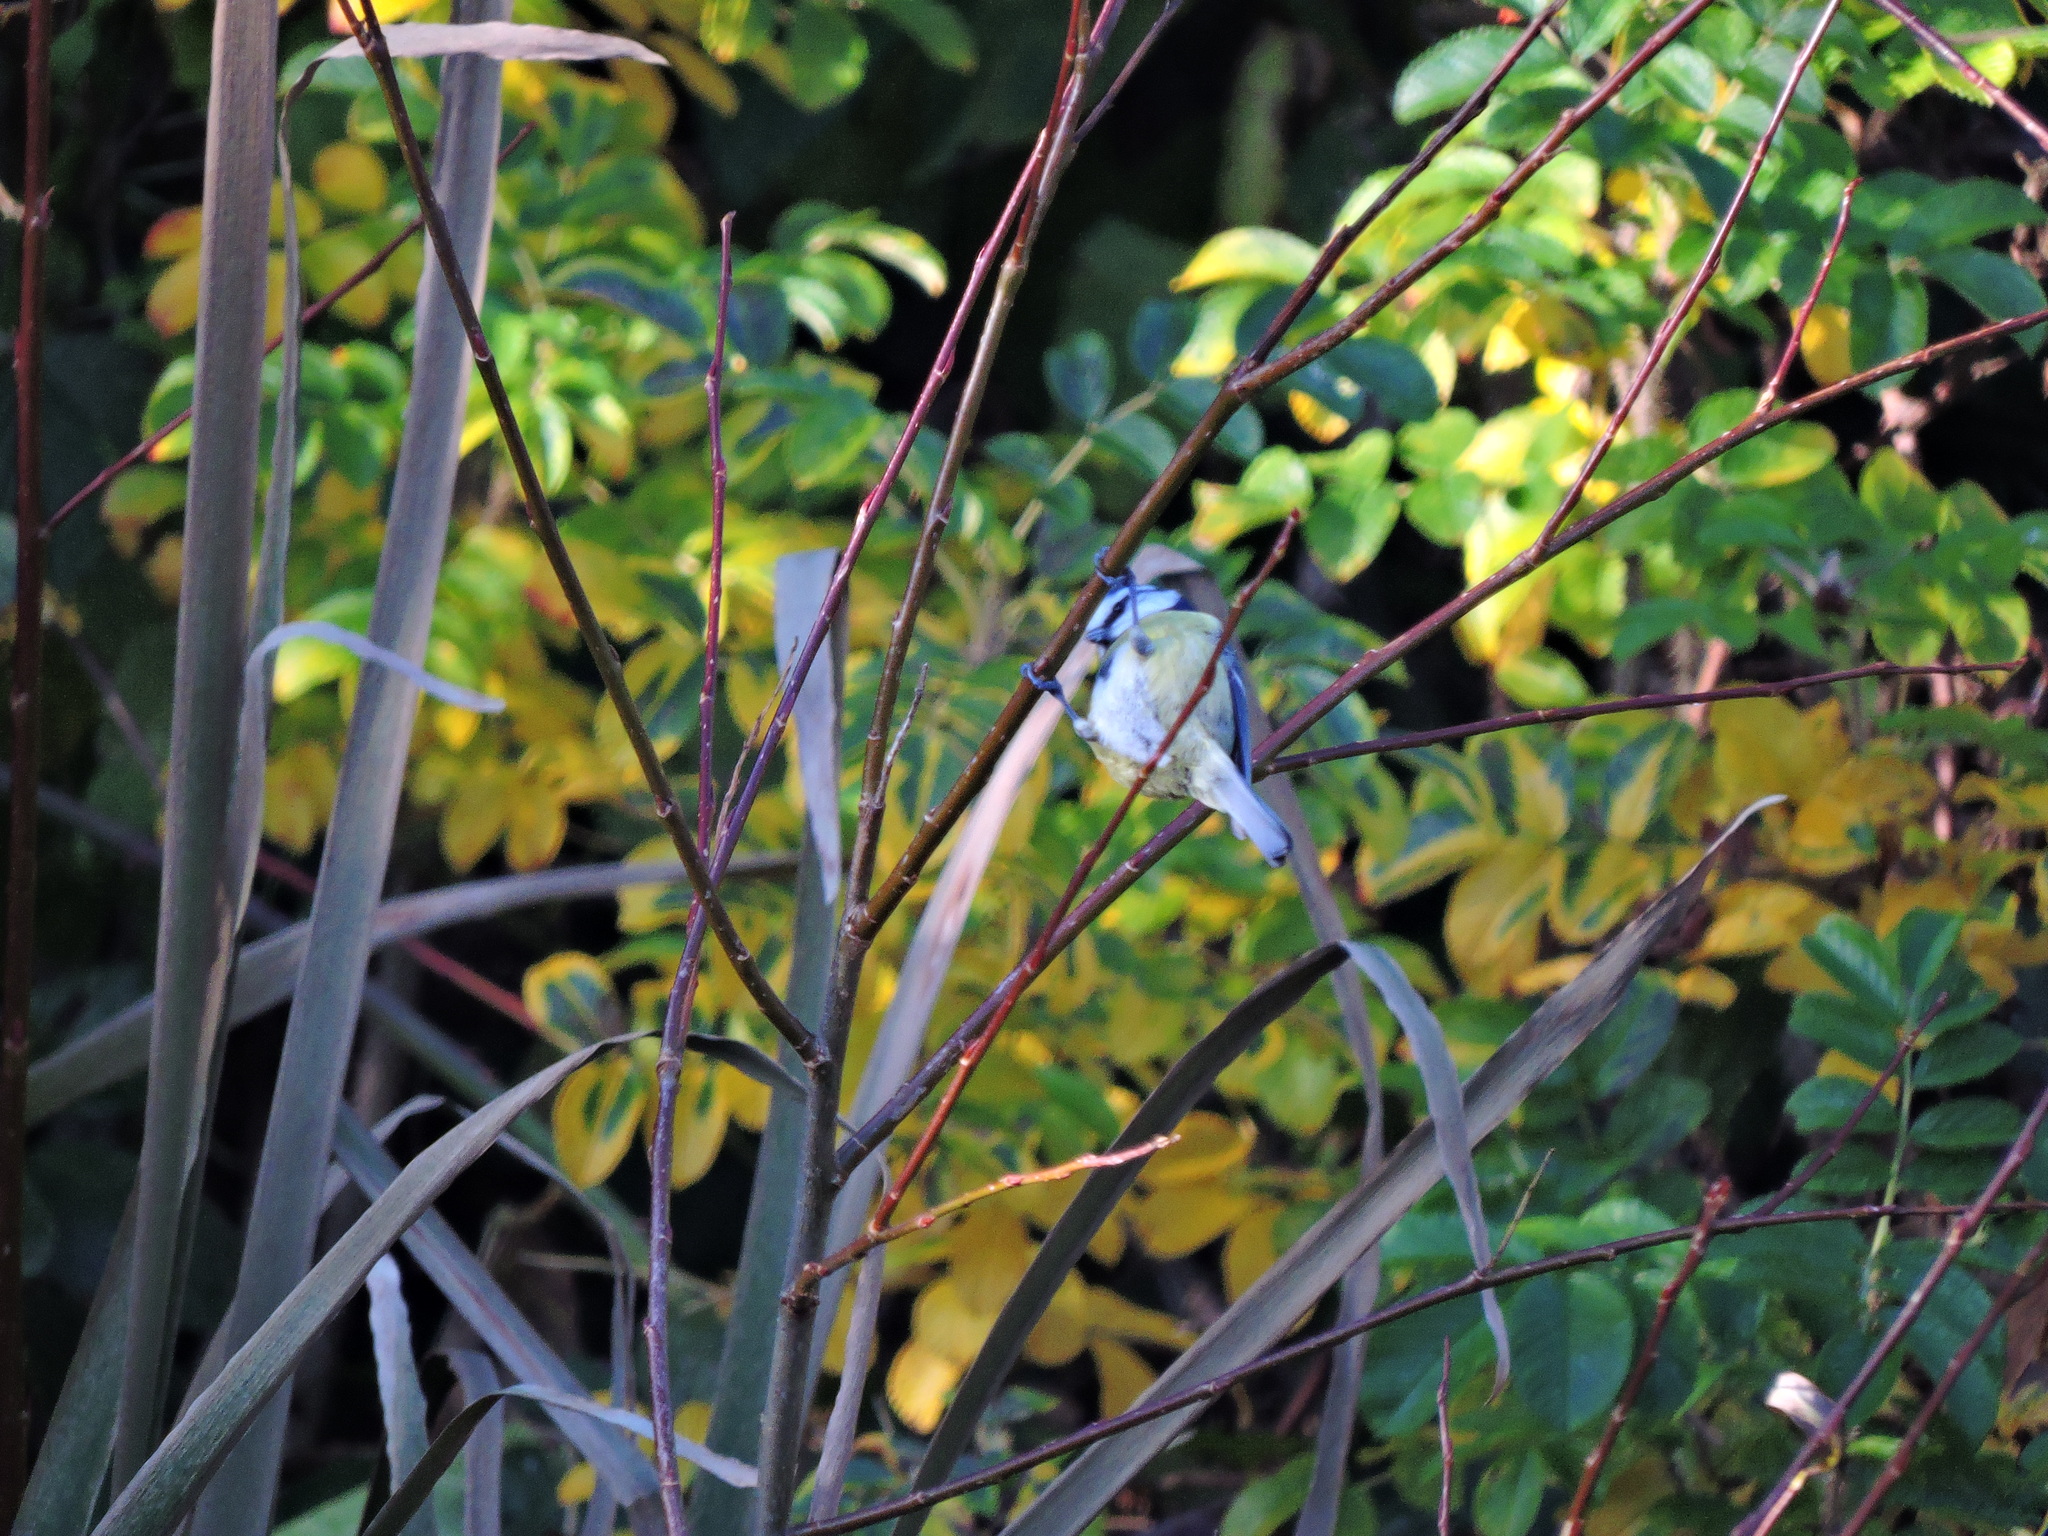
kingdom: Animalia
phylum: Chordata
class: Aves
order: Passeriformes
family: Paridae
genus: Cyanistes
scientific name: Cyanistes caeruleus
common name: Eurasian blue tit
